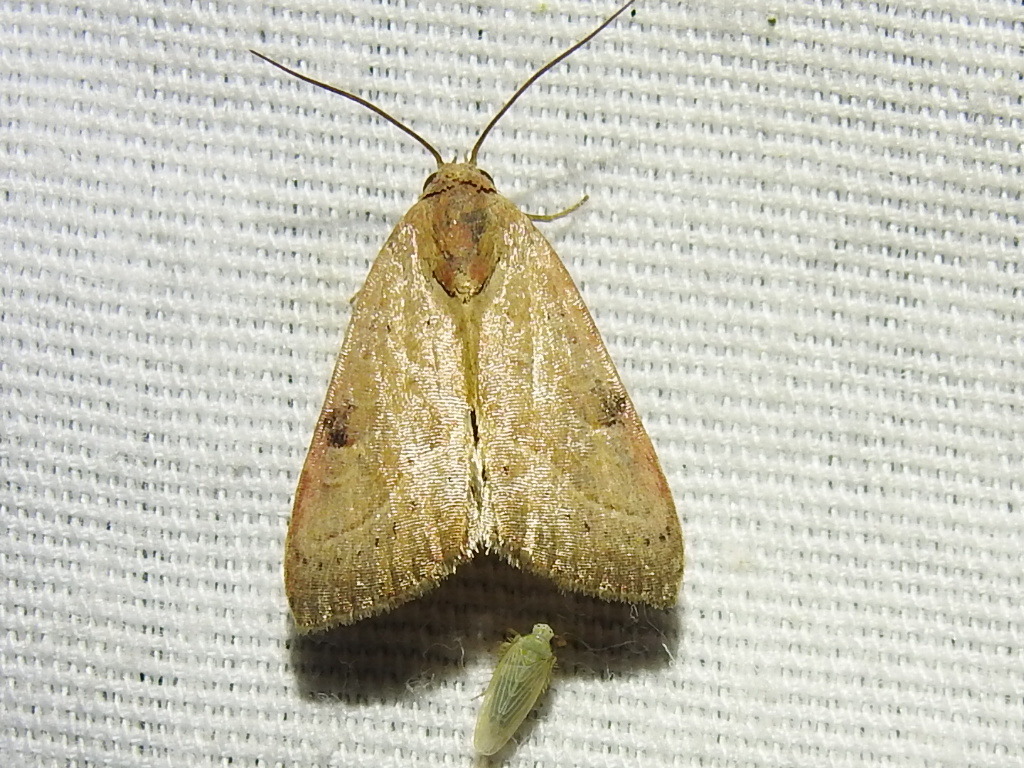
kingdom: Animalia
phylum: Arthropoda
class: Insecta
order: Lepidoptera
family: Noctuidae
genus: Galgula
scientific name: Galgula partita
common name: Wedgeling
